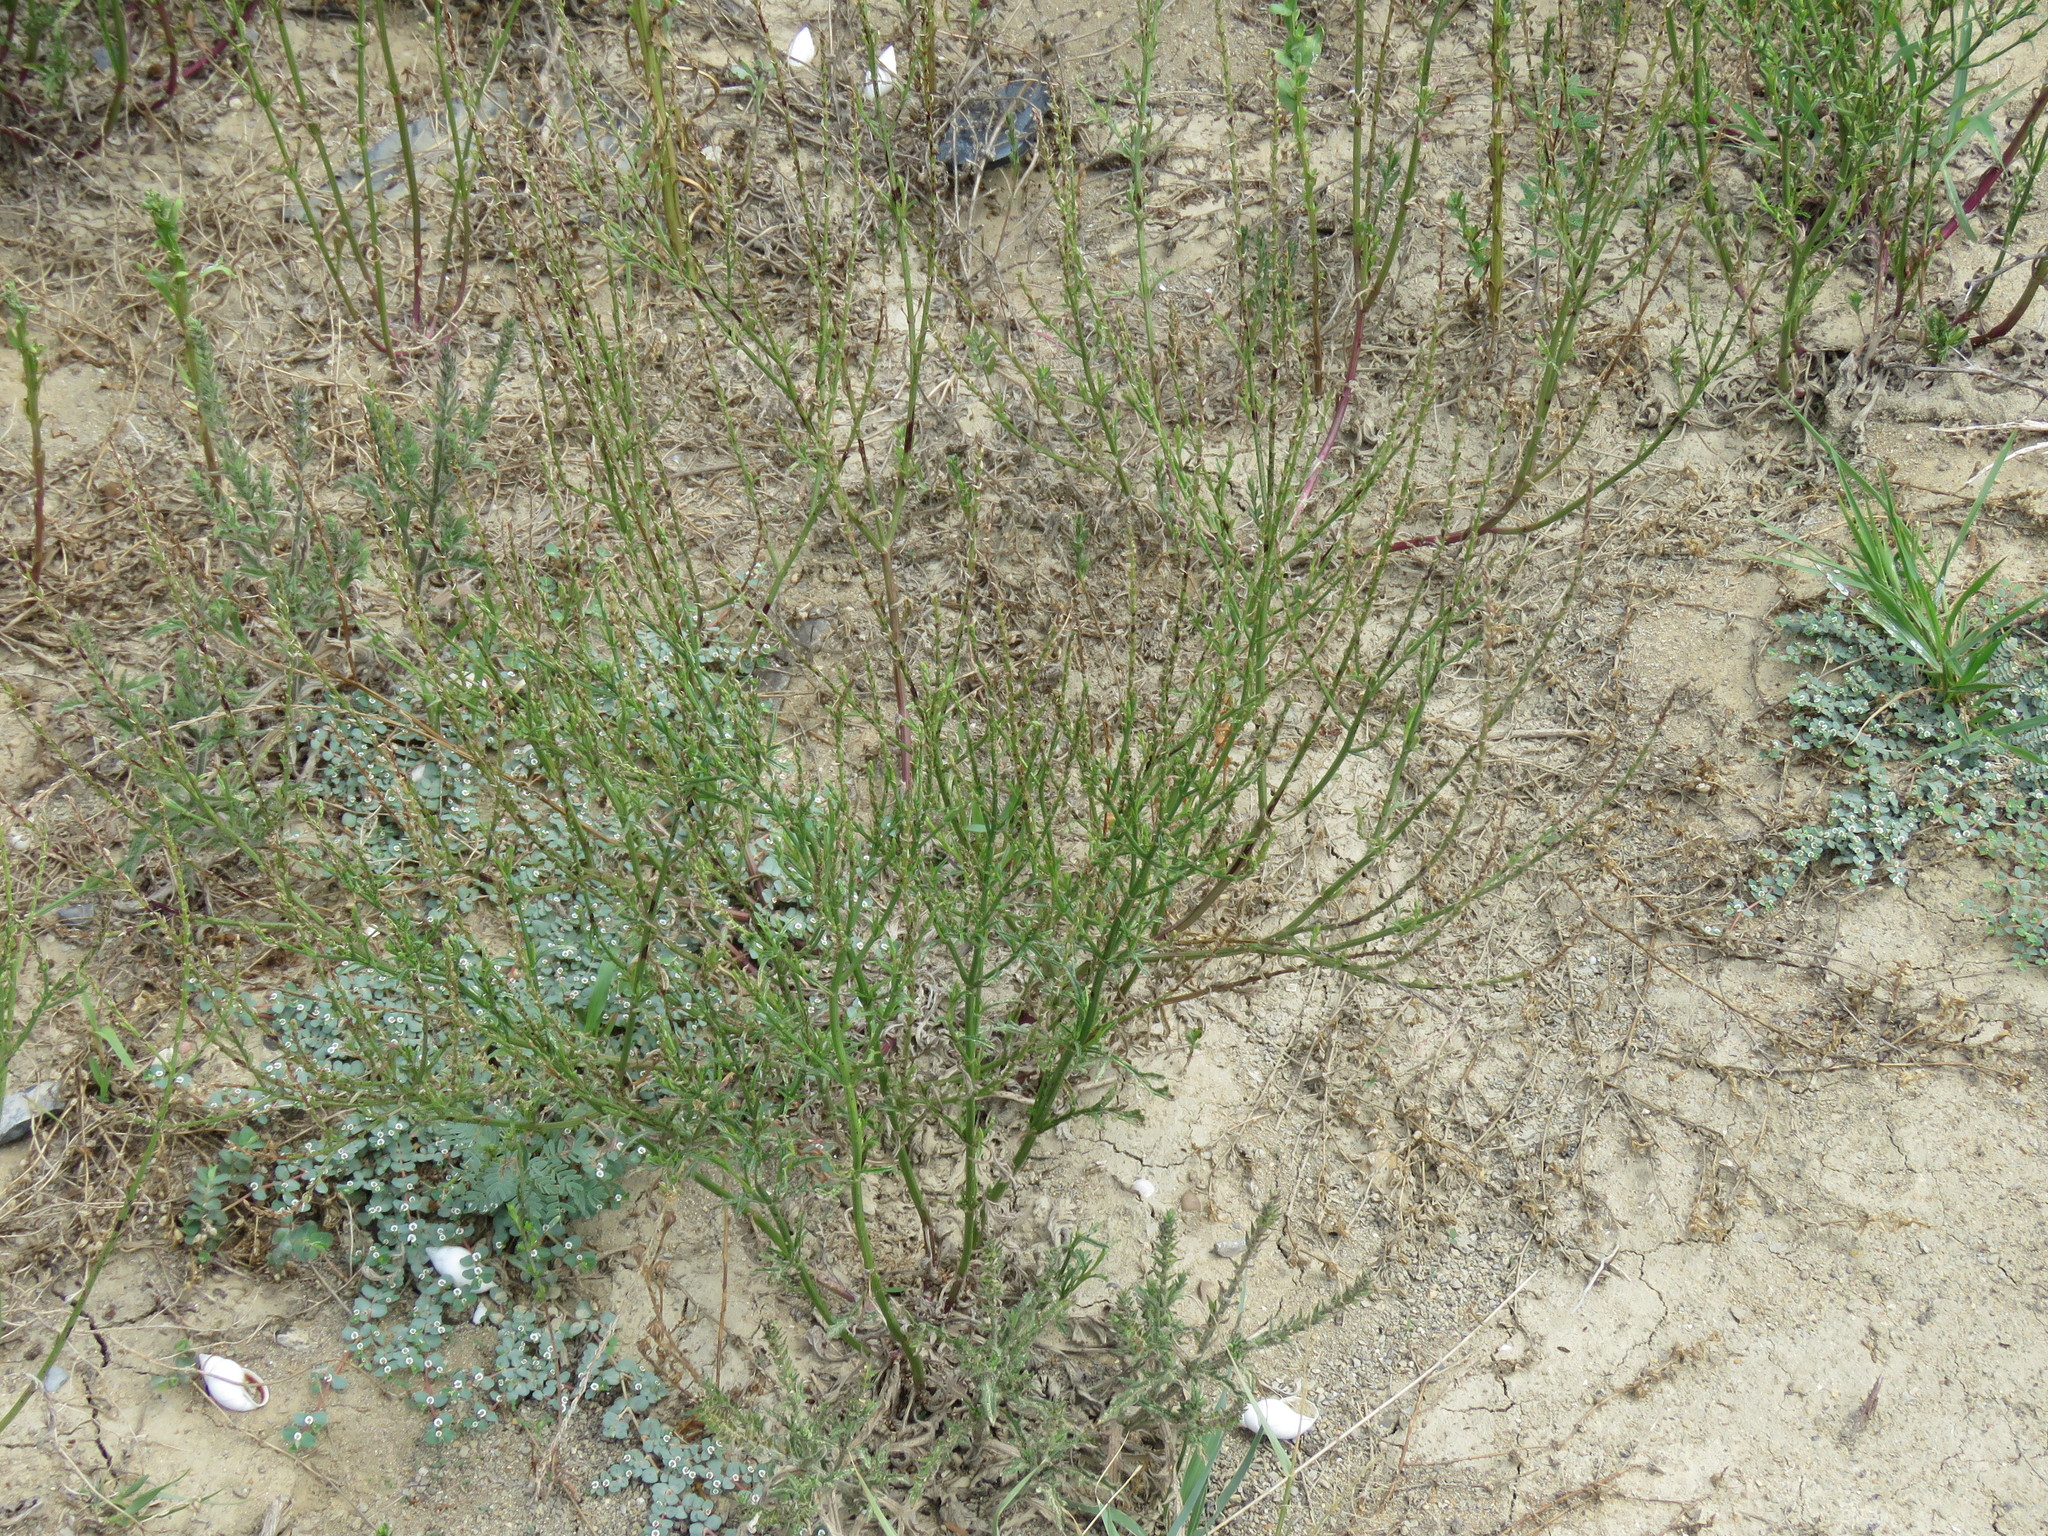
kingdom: Plantae
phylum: Tracheophyta
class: Magnoliopsida
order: Lamiales
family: Verbenaceae
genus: Verbena
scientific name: Verbena halei
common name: Texas vervain
